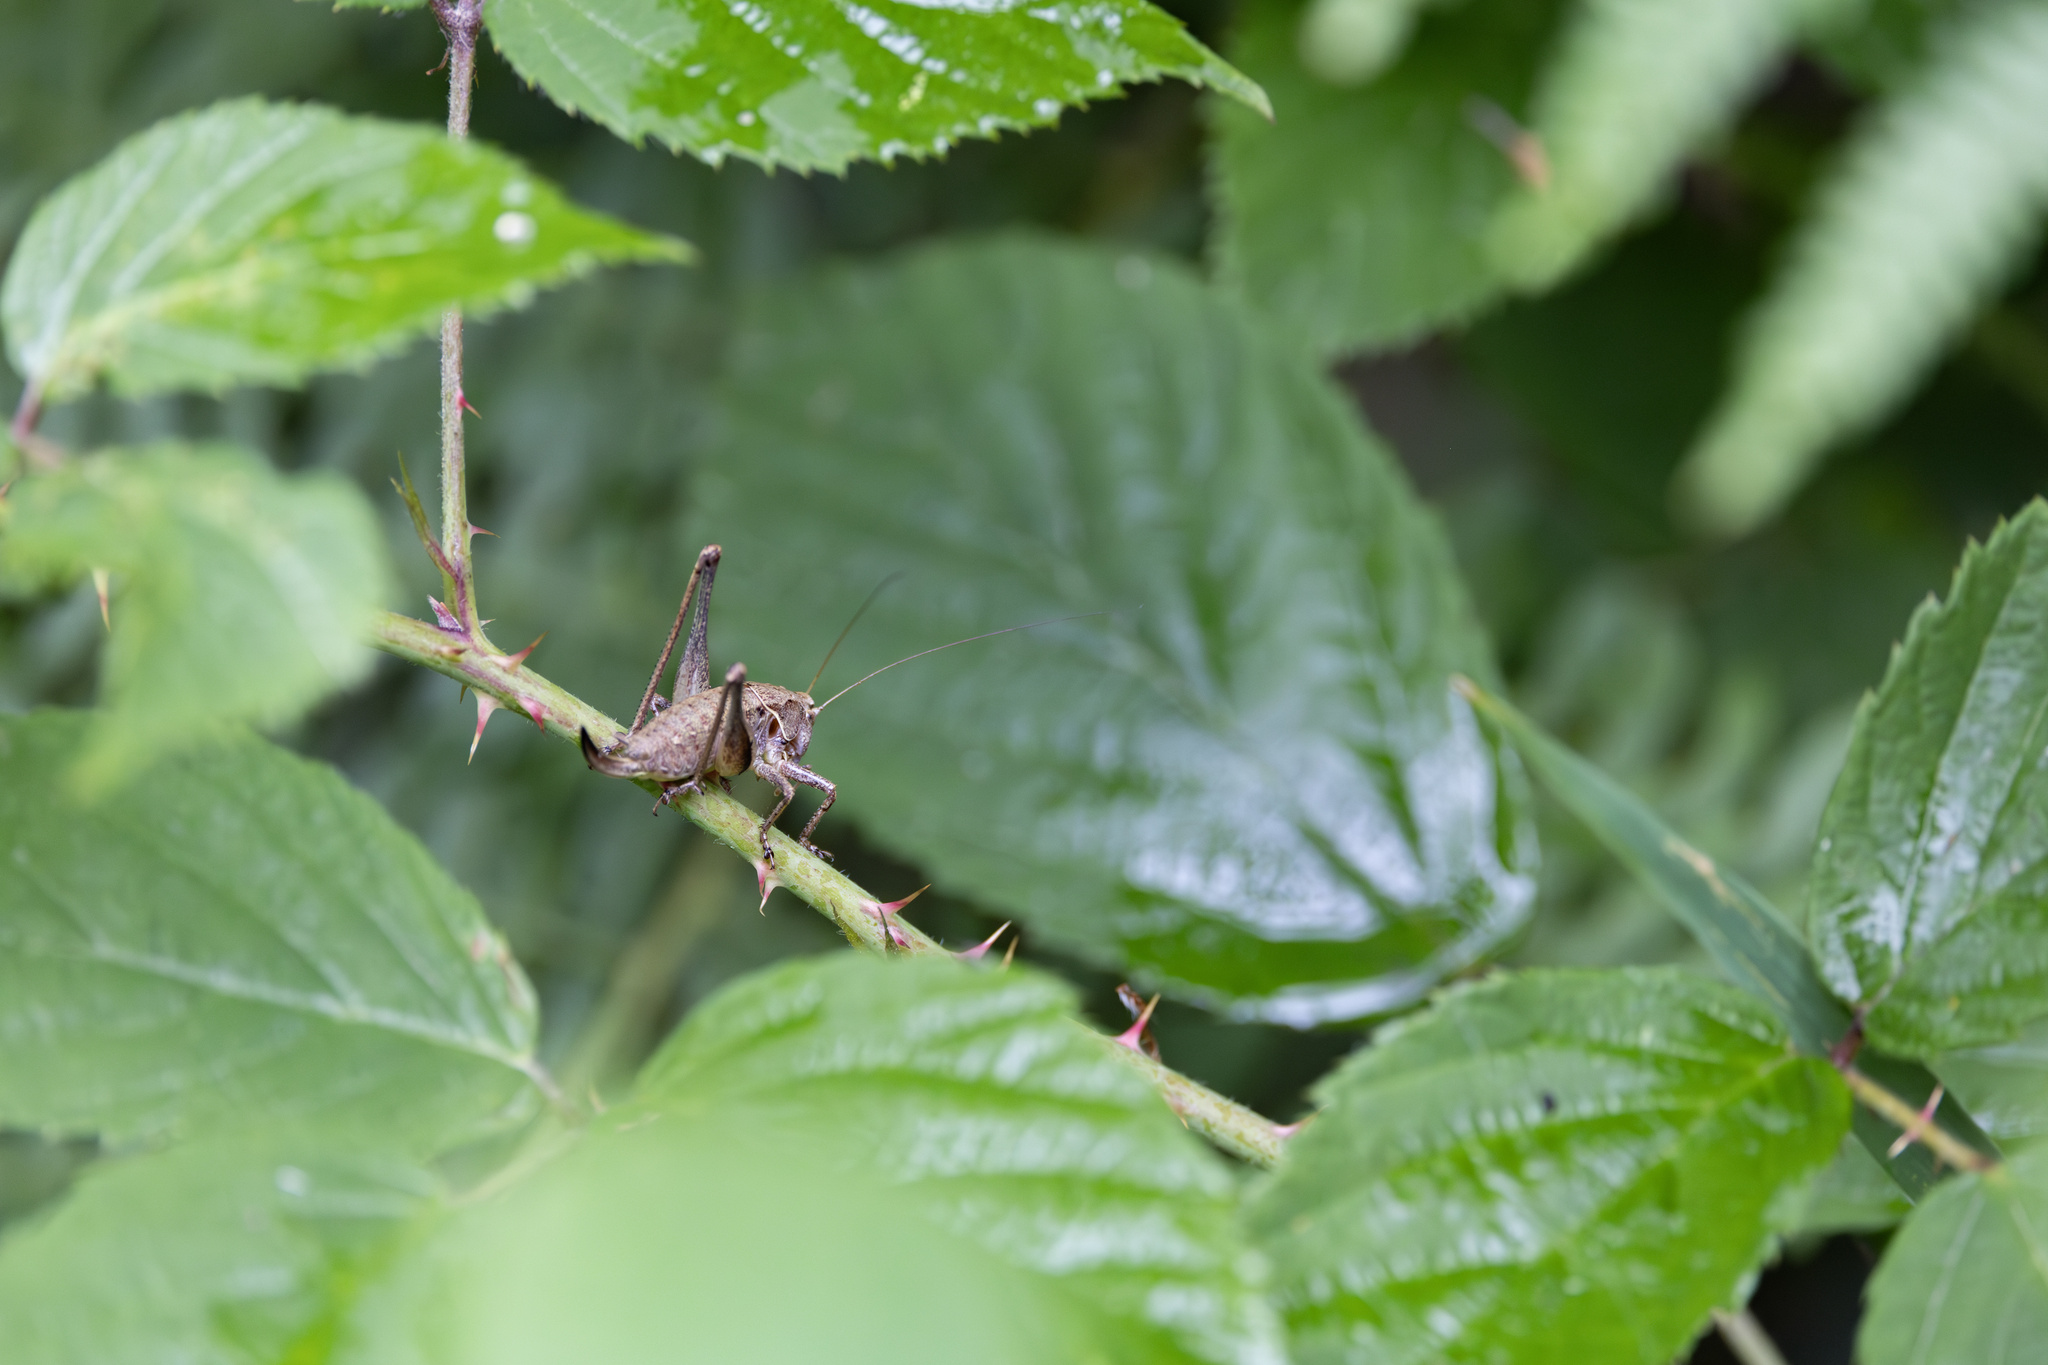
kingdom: Animalia
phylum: Arthropoda
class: Insecta
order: Orthoptera
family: Tettigoniidae
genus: Pholidoptera
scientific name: Pholidoptera griseoaptera
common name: Dark bush-cricket
